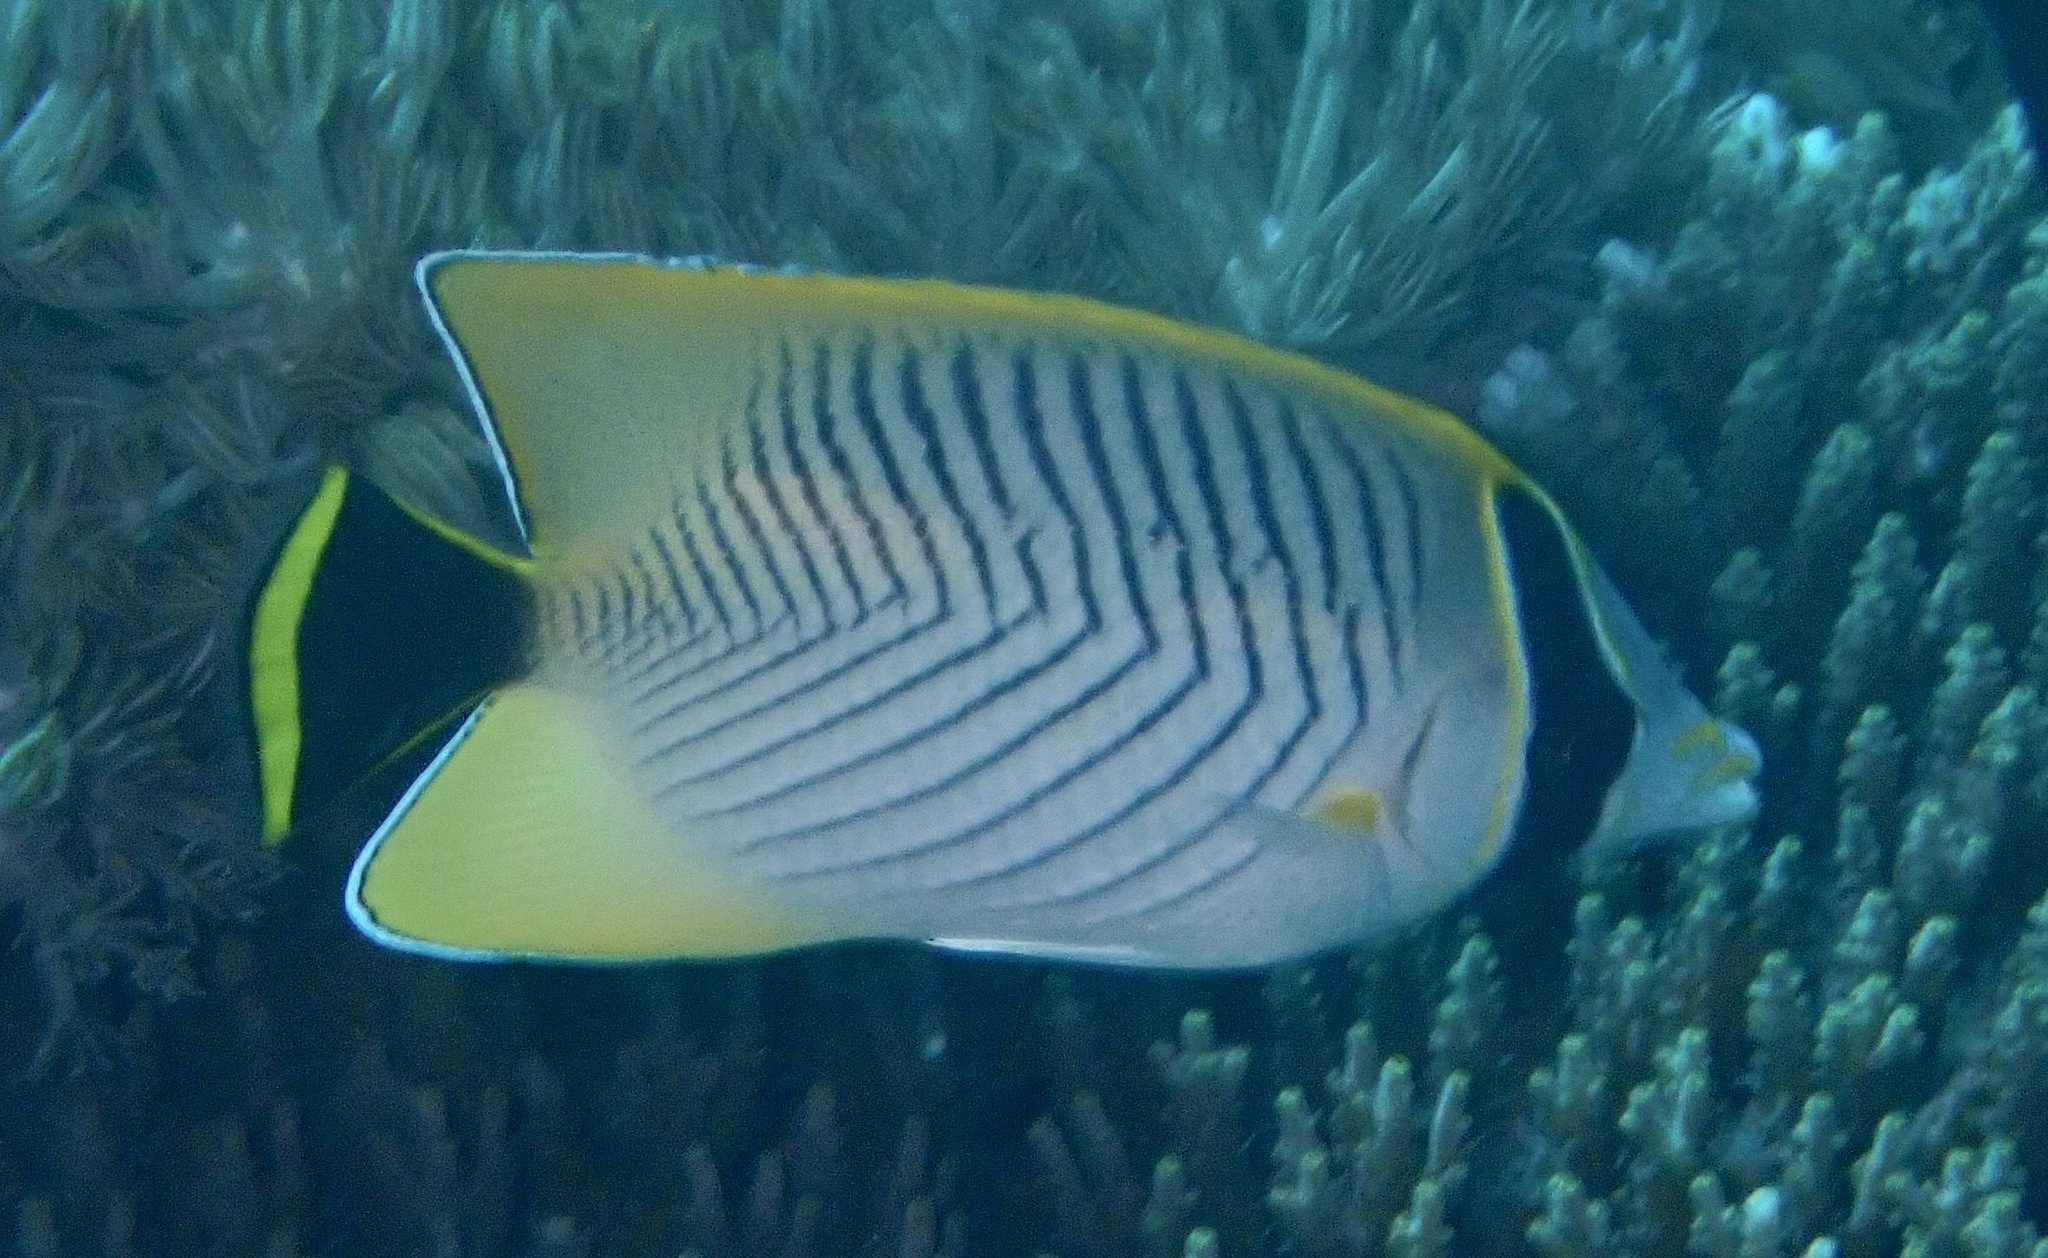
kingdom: Animalia
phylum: Chordata
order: Perciformes
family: Chaetodontidae
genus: Chaetodon
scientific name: Chaetodon trifascialis
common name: Chevroned butterflyfish
